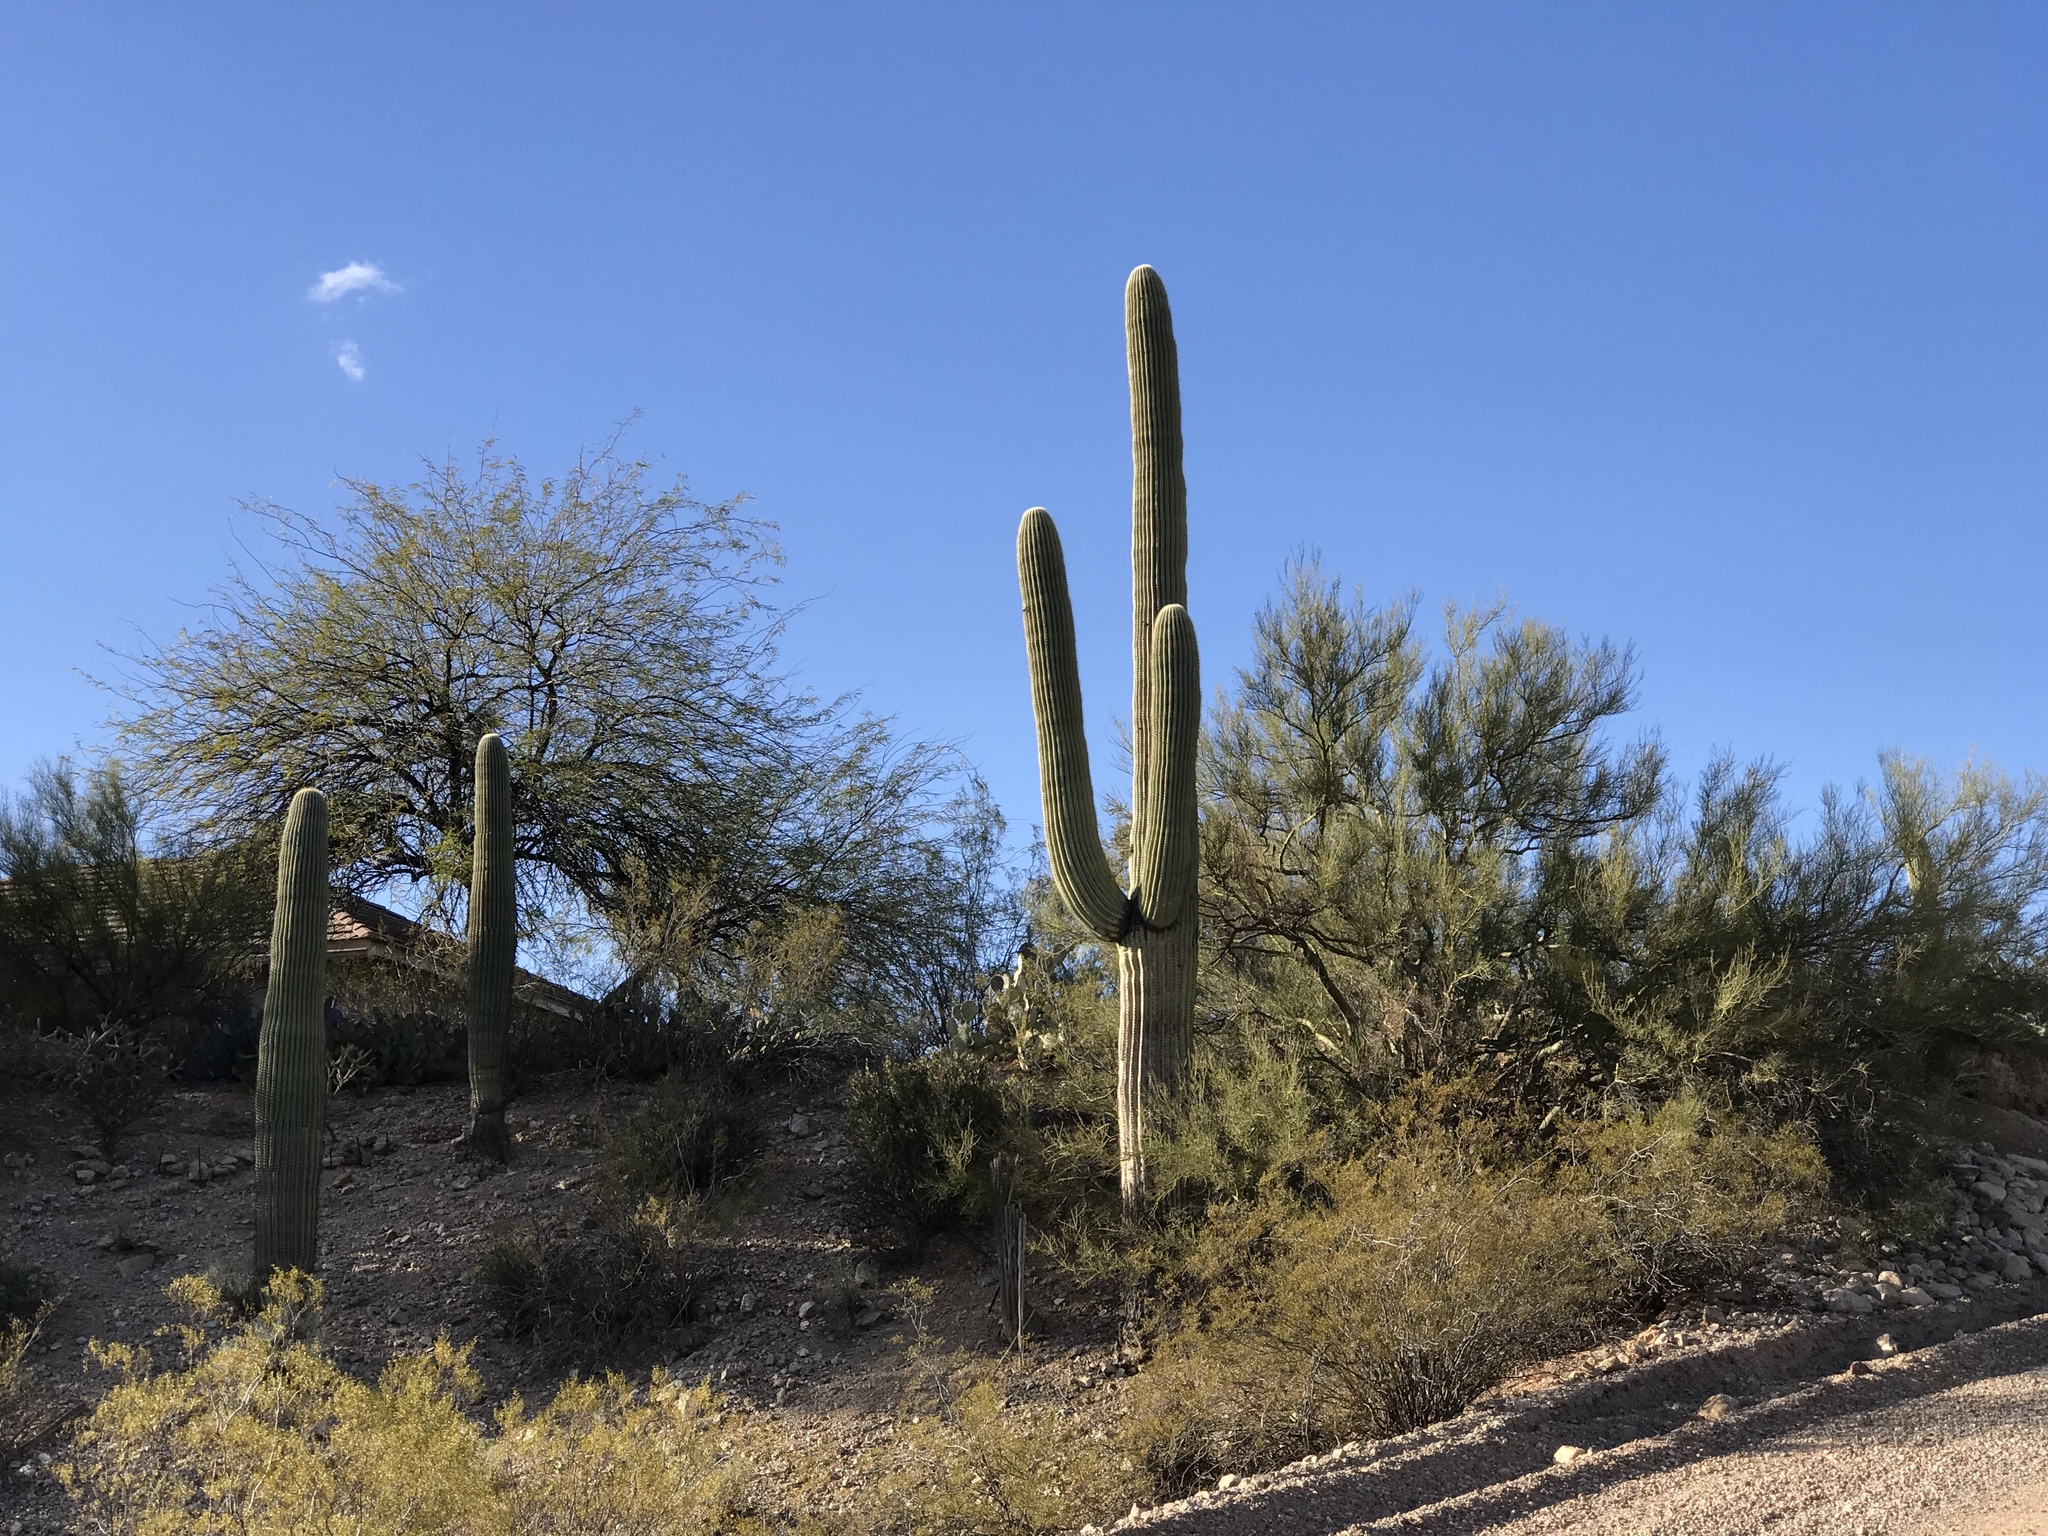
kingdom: Plantae
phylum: Tracheophyta
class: Magnoliopsida
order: Caryophyllales
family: Cactaceae
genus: Carnegiea
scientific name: Carnegiea gigantea
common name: Saguaro
